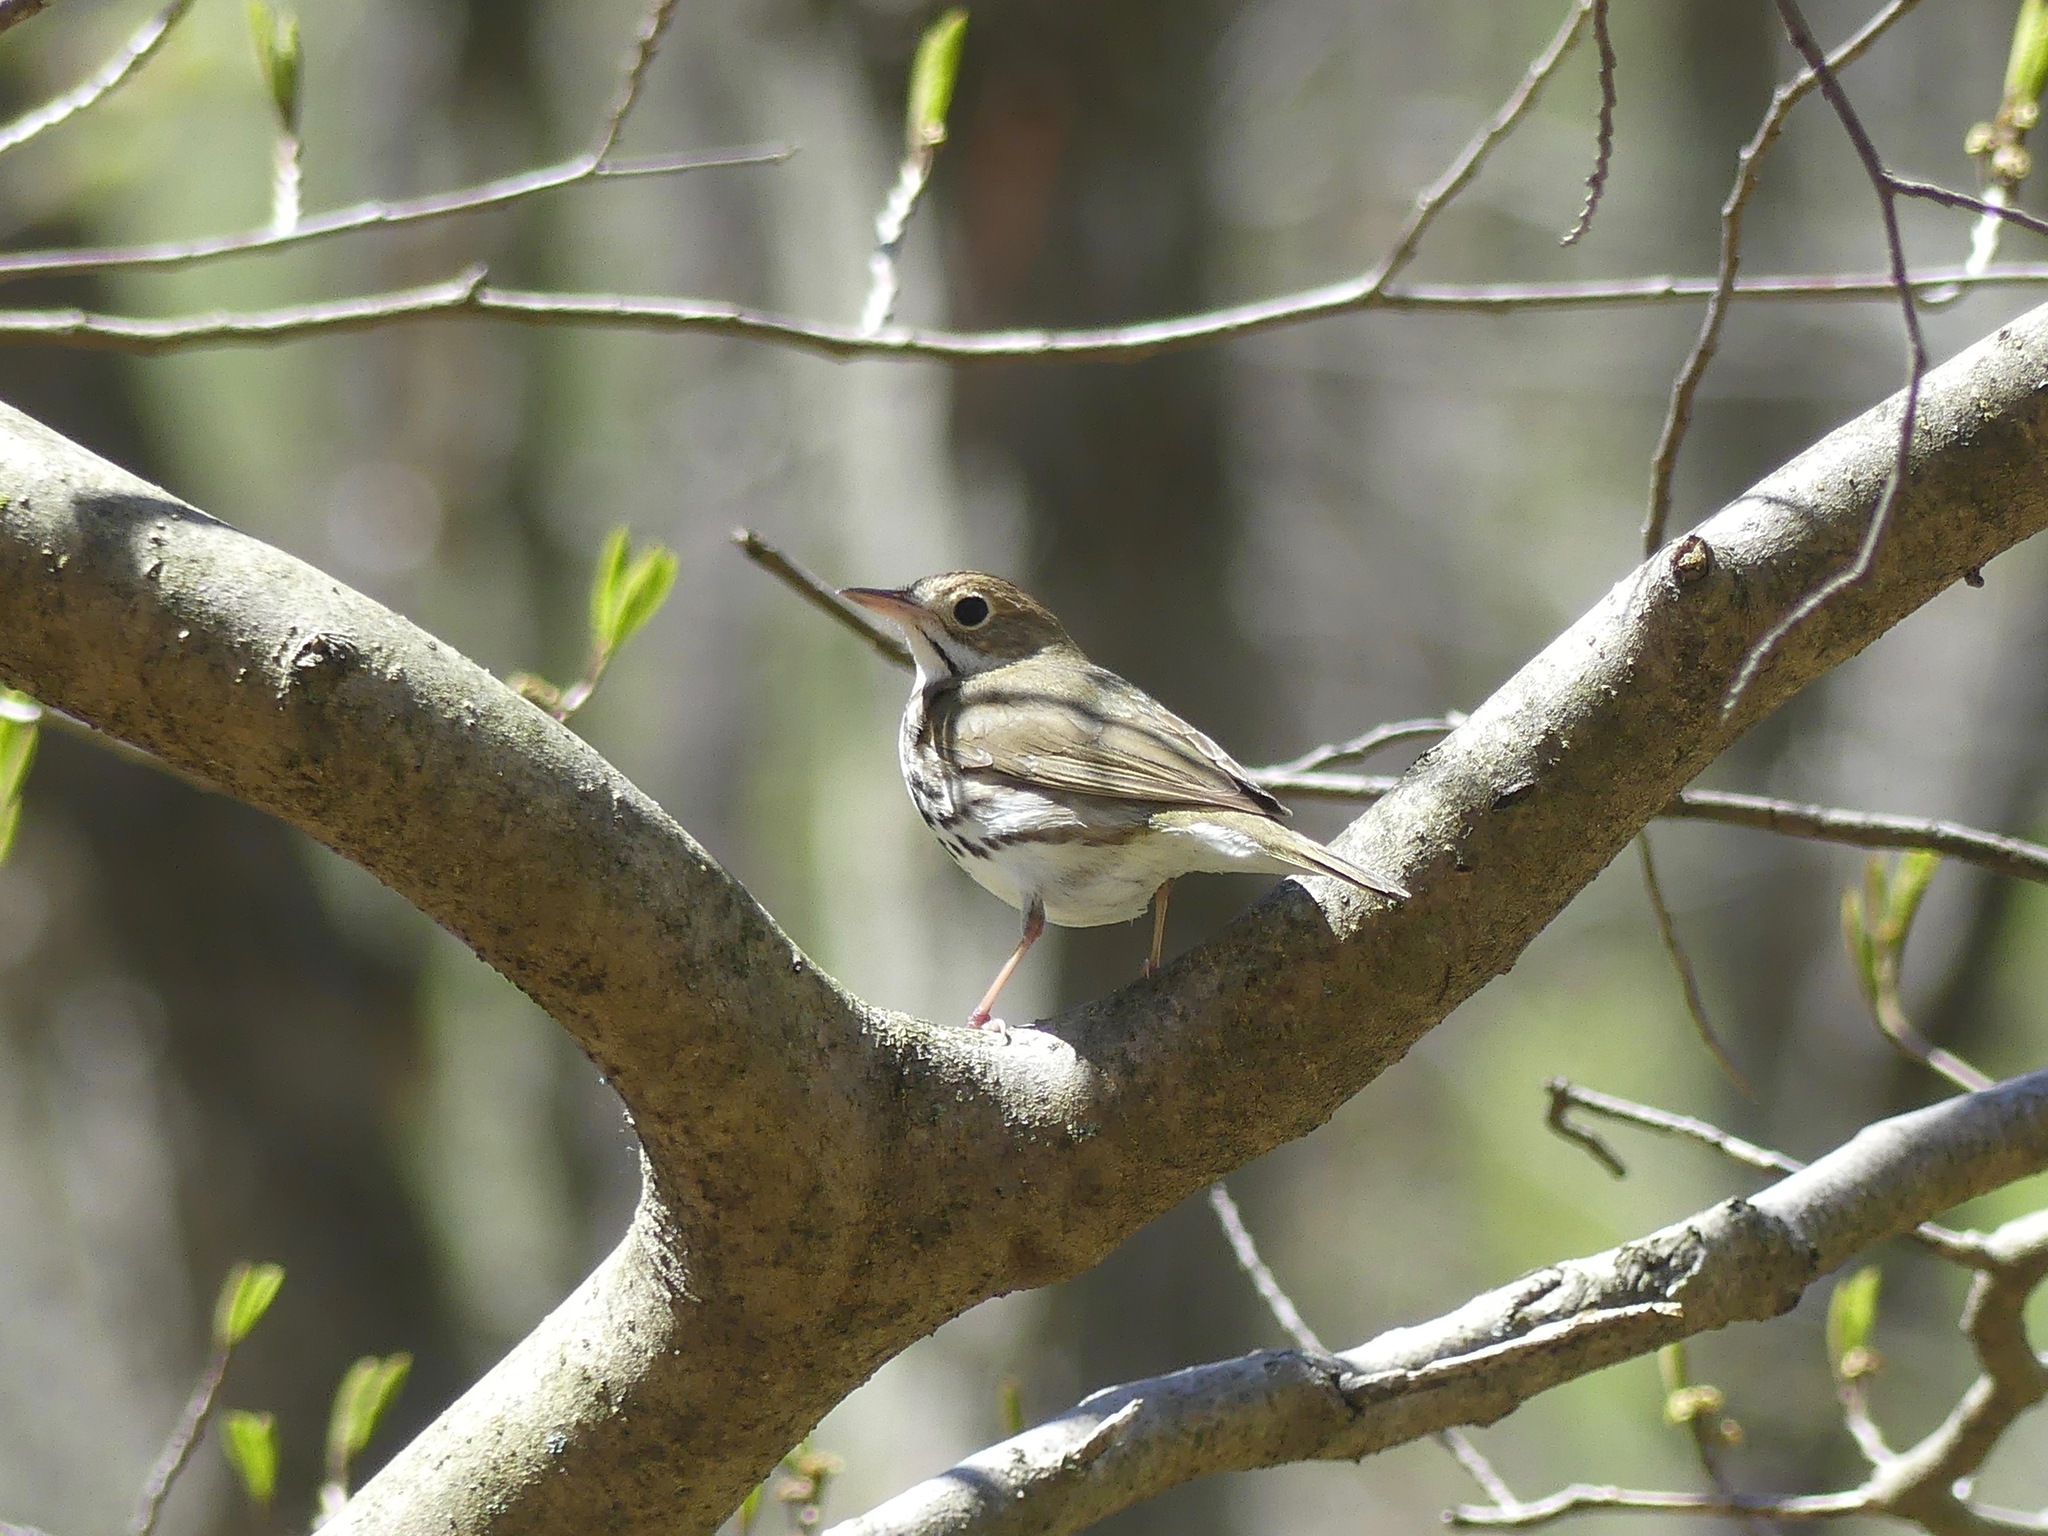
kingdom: Animalia
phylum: Chordata
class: Aves
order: Passeriformes
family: Parulidae
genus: Seiurus
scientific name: Seiurus aurocapilla
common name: Ovenbird
